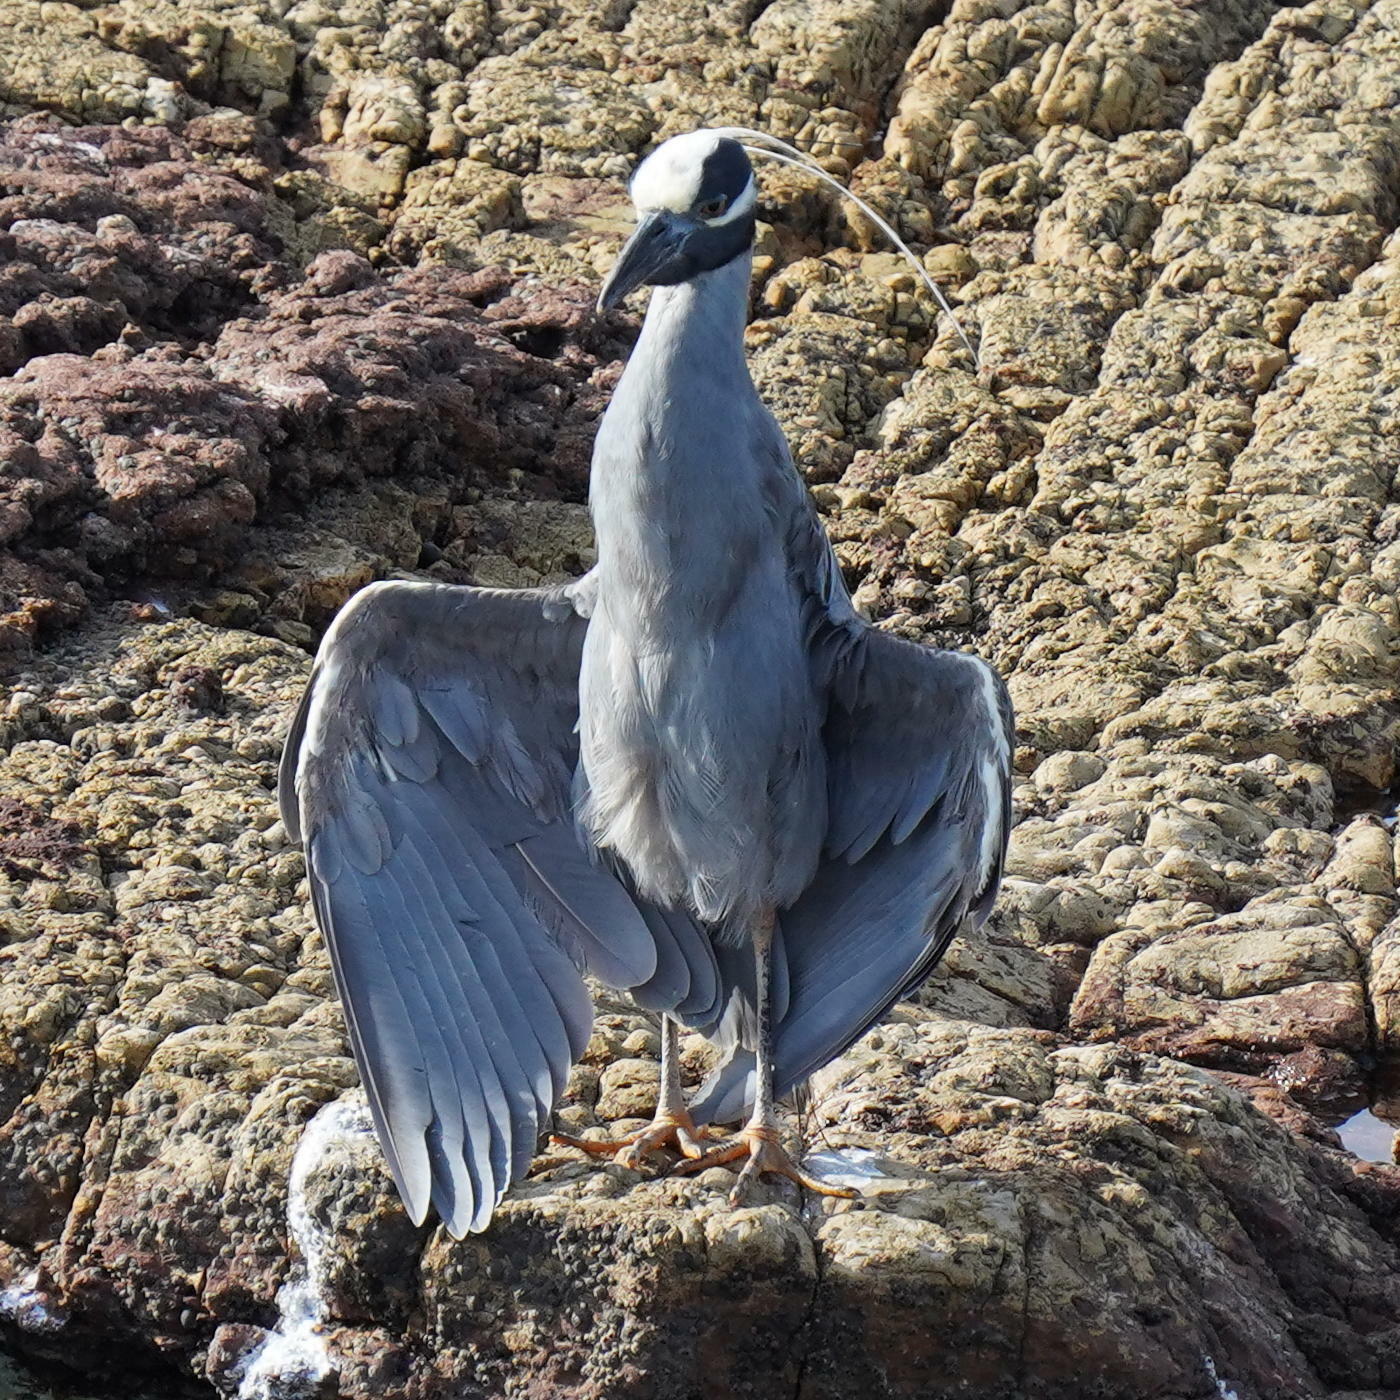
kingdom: Animalia
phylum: Chordata
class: Aves
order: Pelecaniformes
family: Ardeidae
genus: Nyctanassa
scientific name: Nyctanassa violacea
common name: Yellow-crowned night heron
